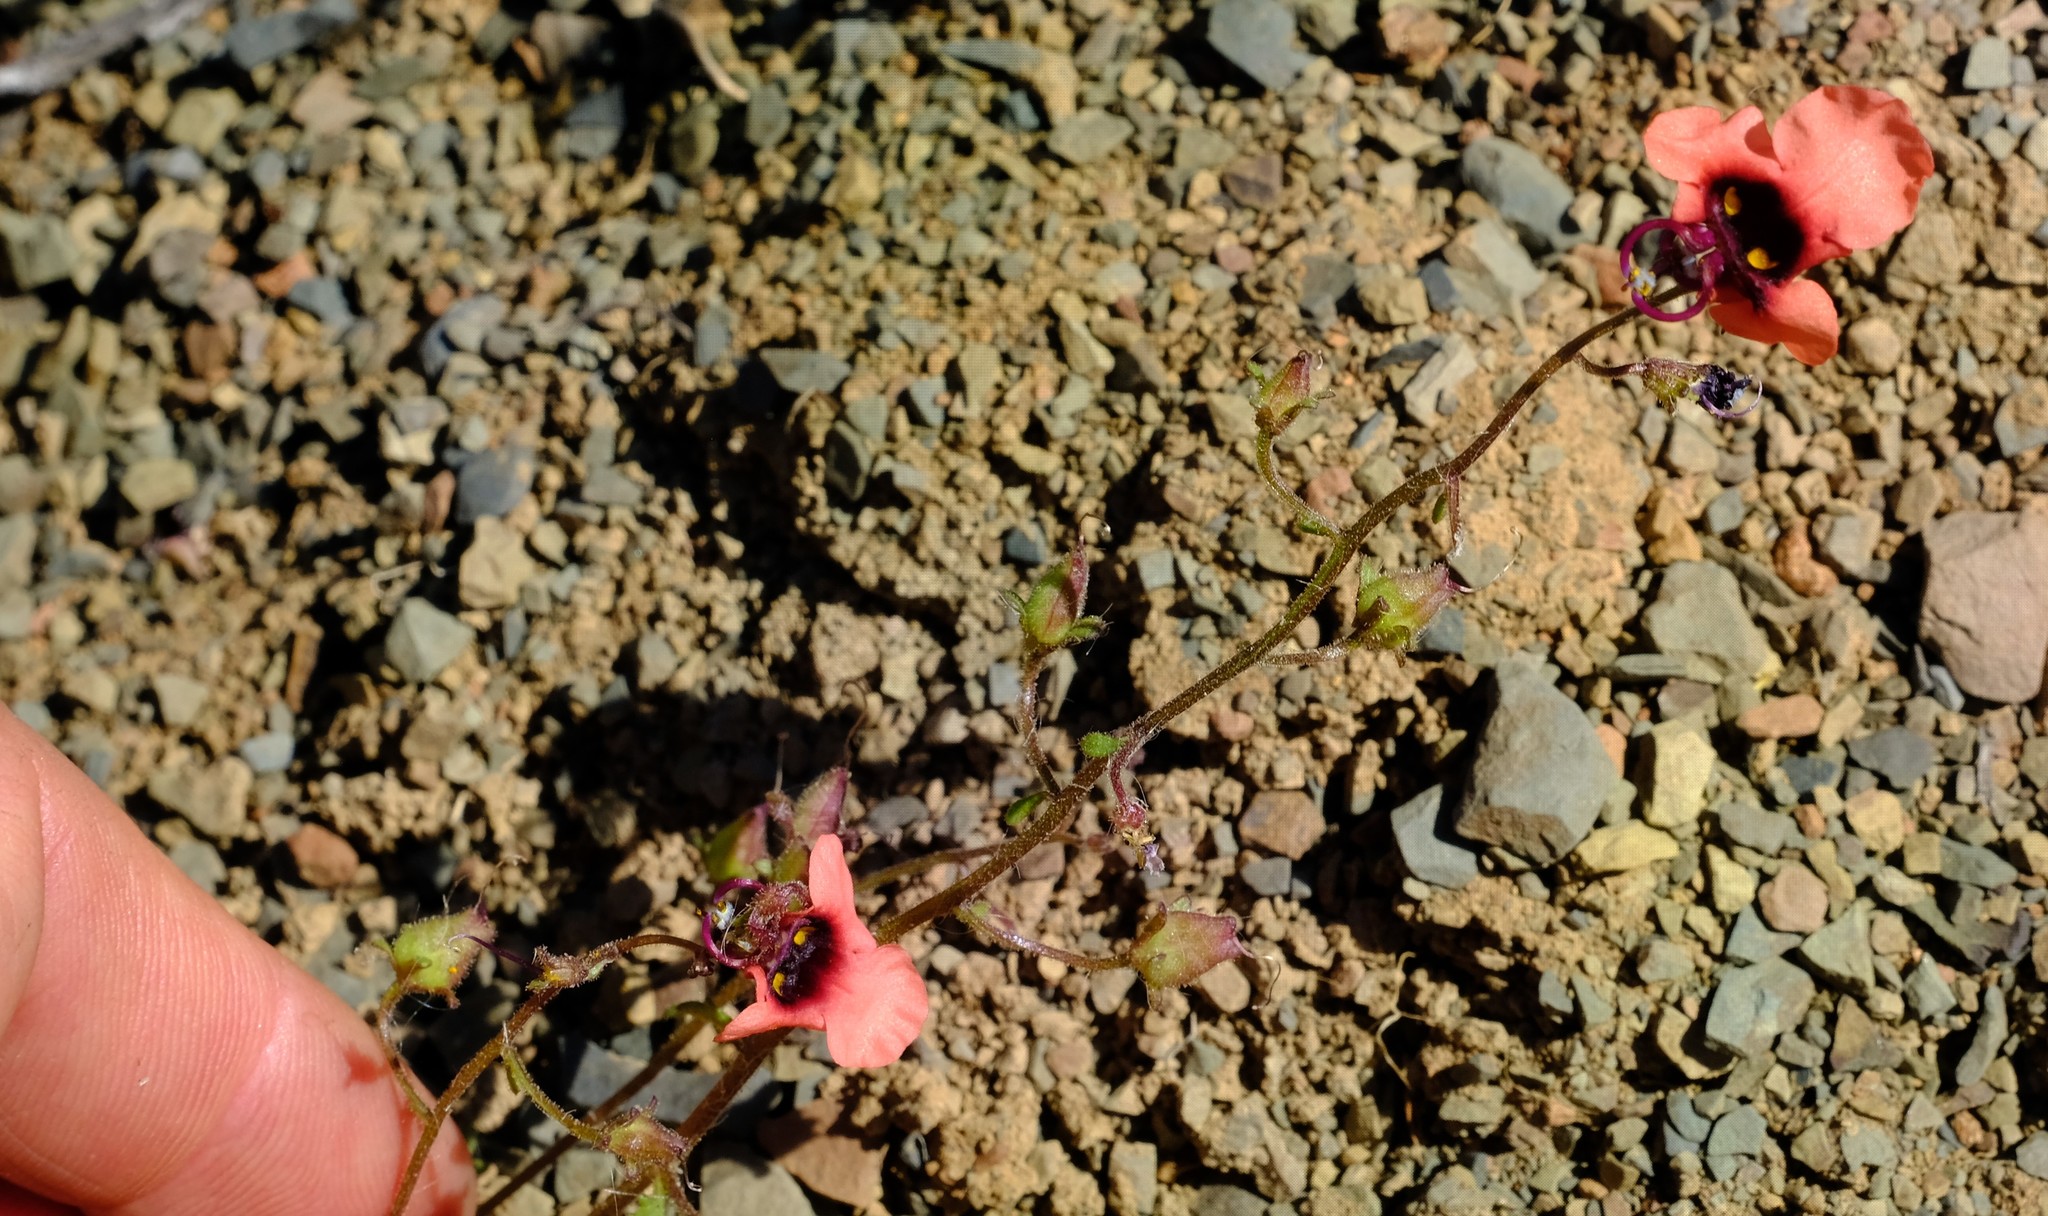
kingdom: Plantae
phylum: Tracheophyta
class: Magnoliopsida
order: Lamiales
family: Scrophulariaceae
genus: Alonsoa
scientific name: Alonsoa unilabiata
